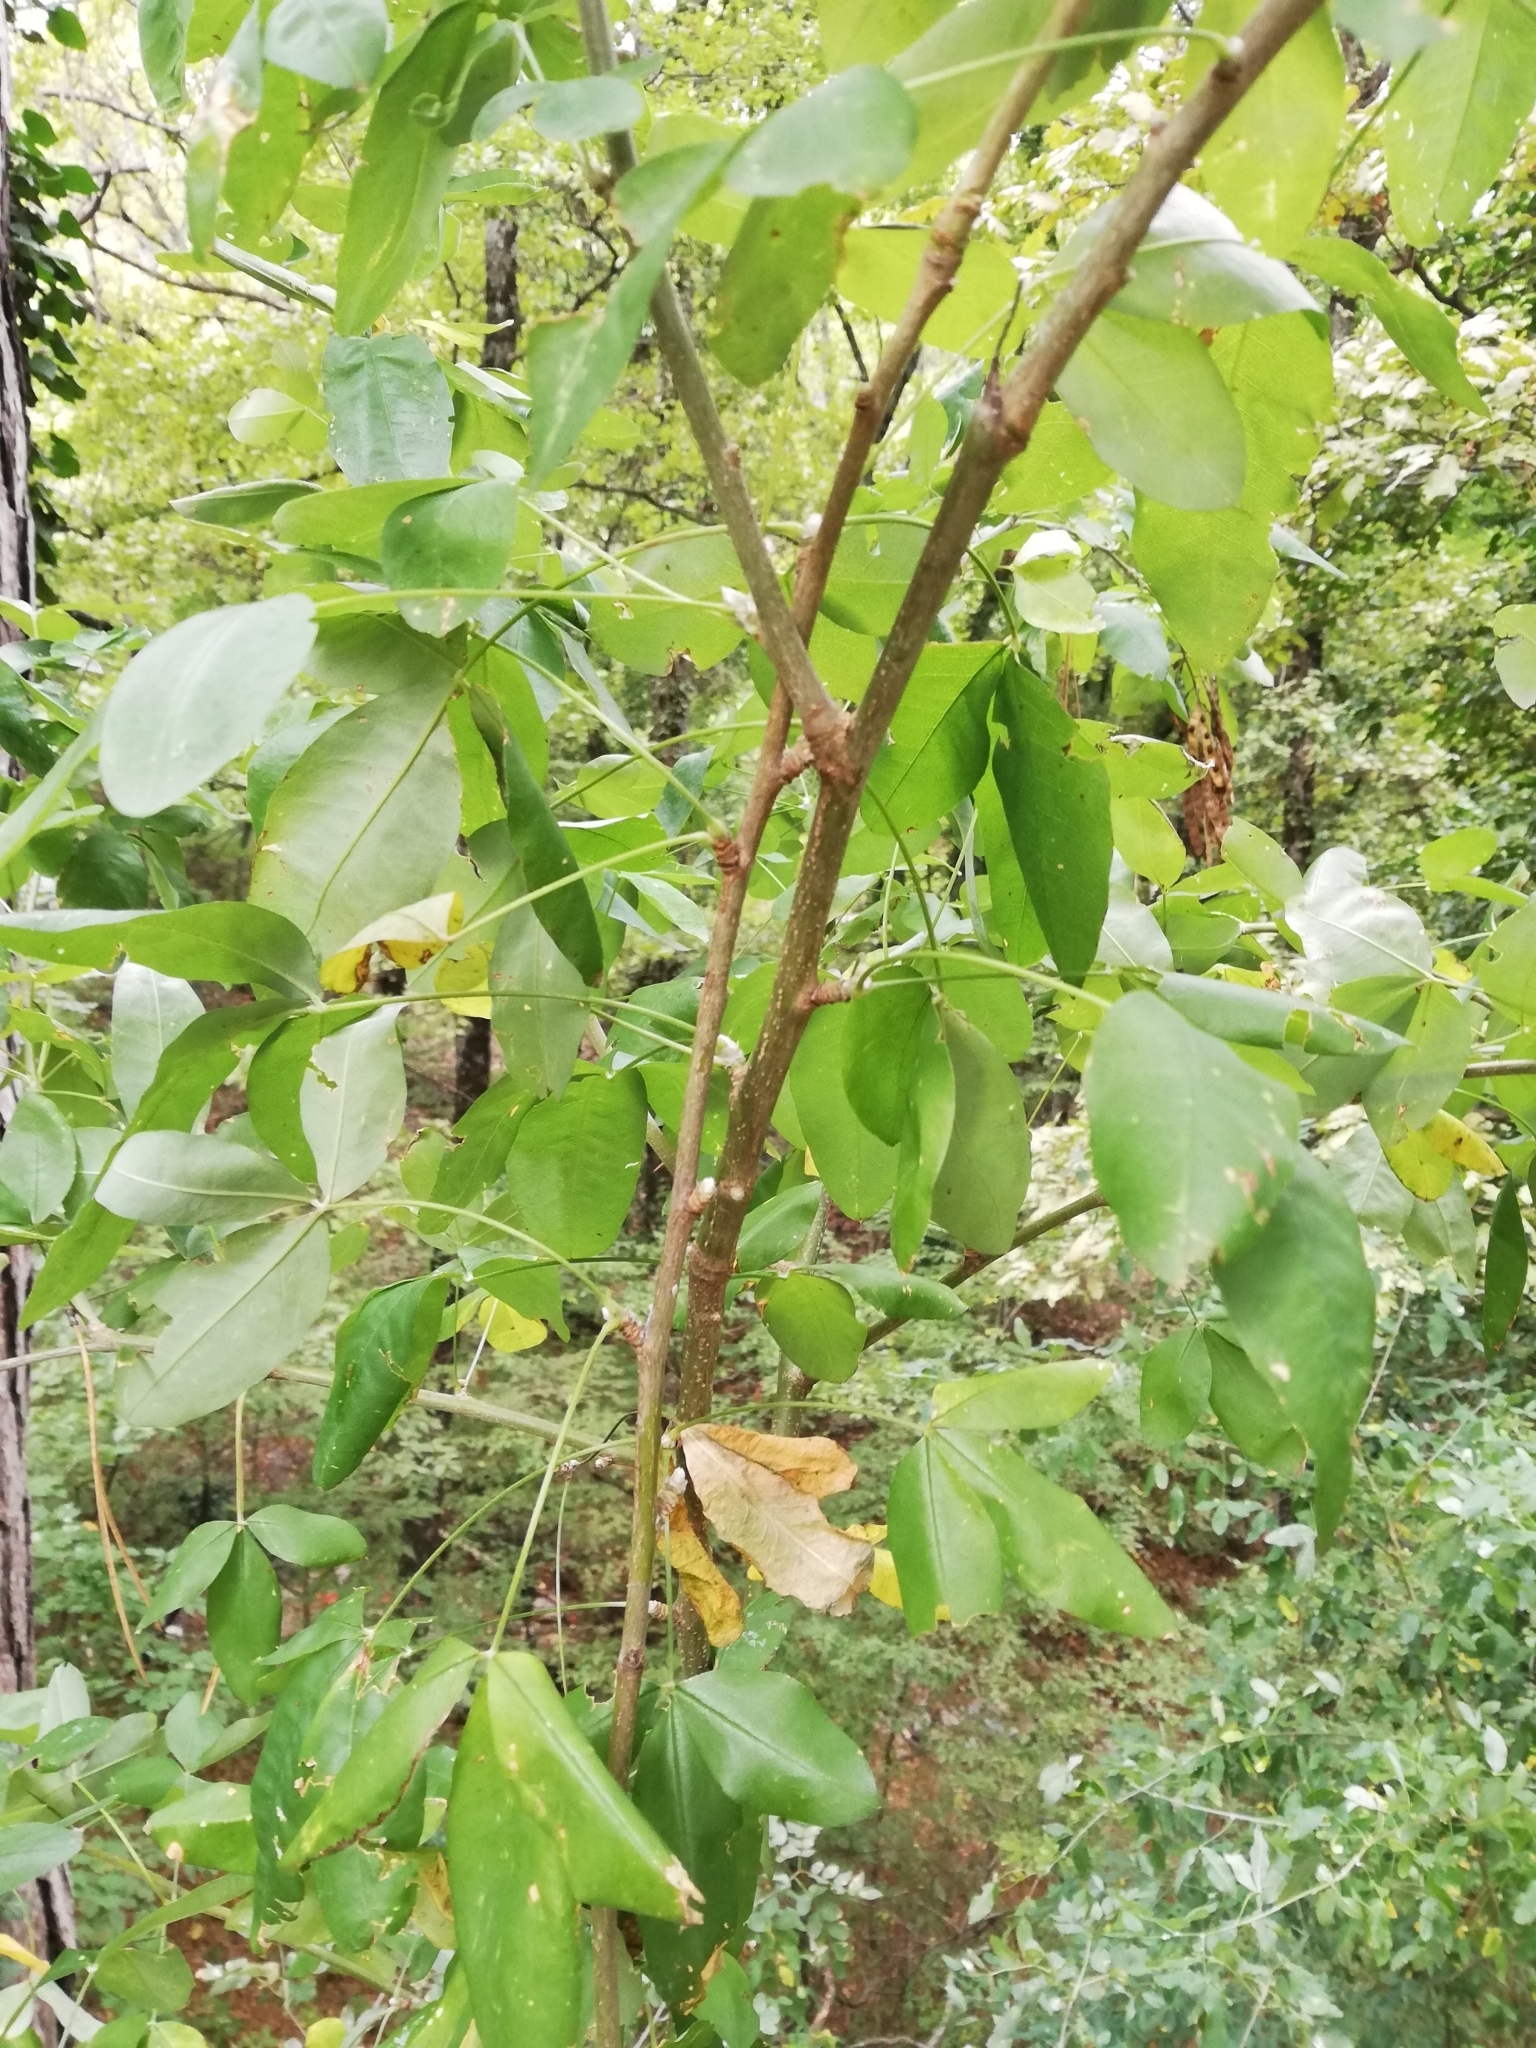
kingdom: Plantae
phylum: Tracheophyta
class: Magnoliopsida
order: Fabales
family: Fabaceae
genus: Laburnum
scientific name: Laburnum anagyroides
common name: Laburnum
